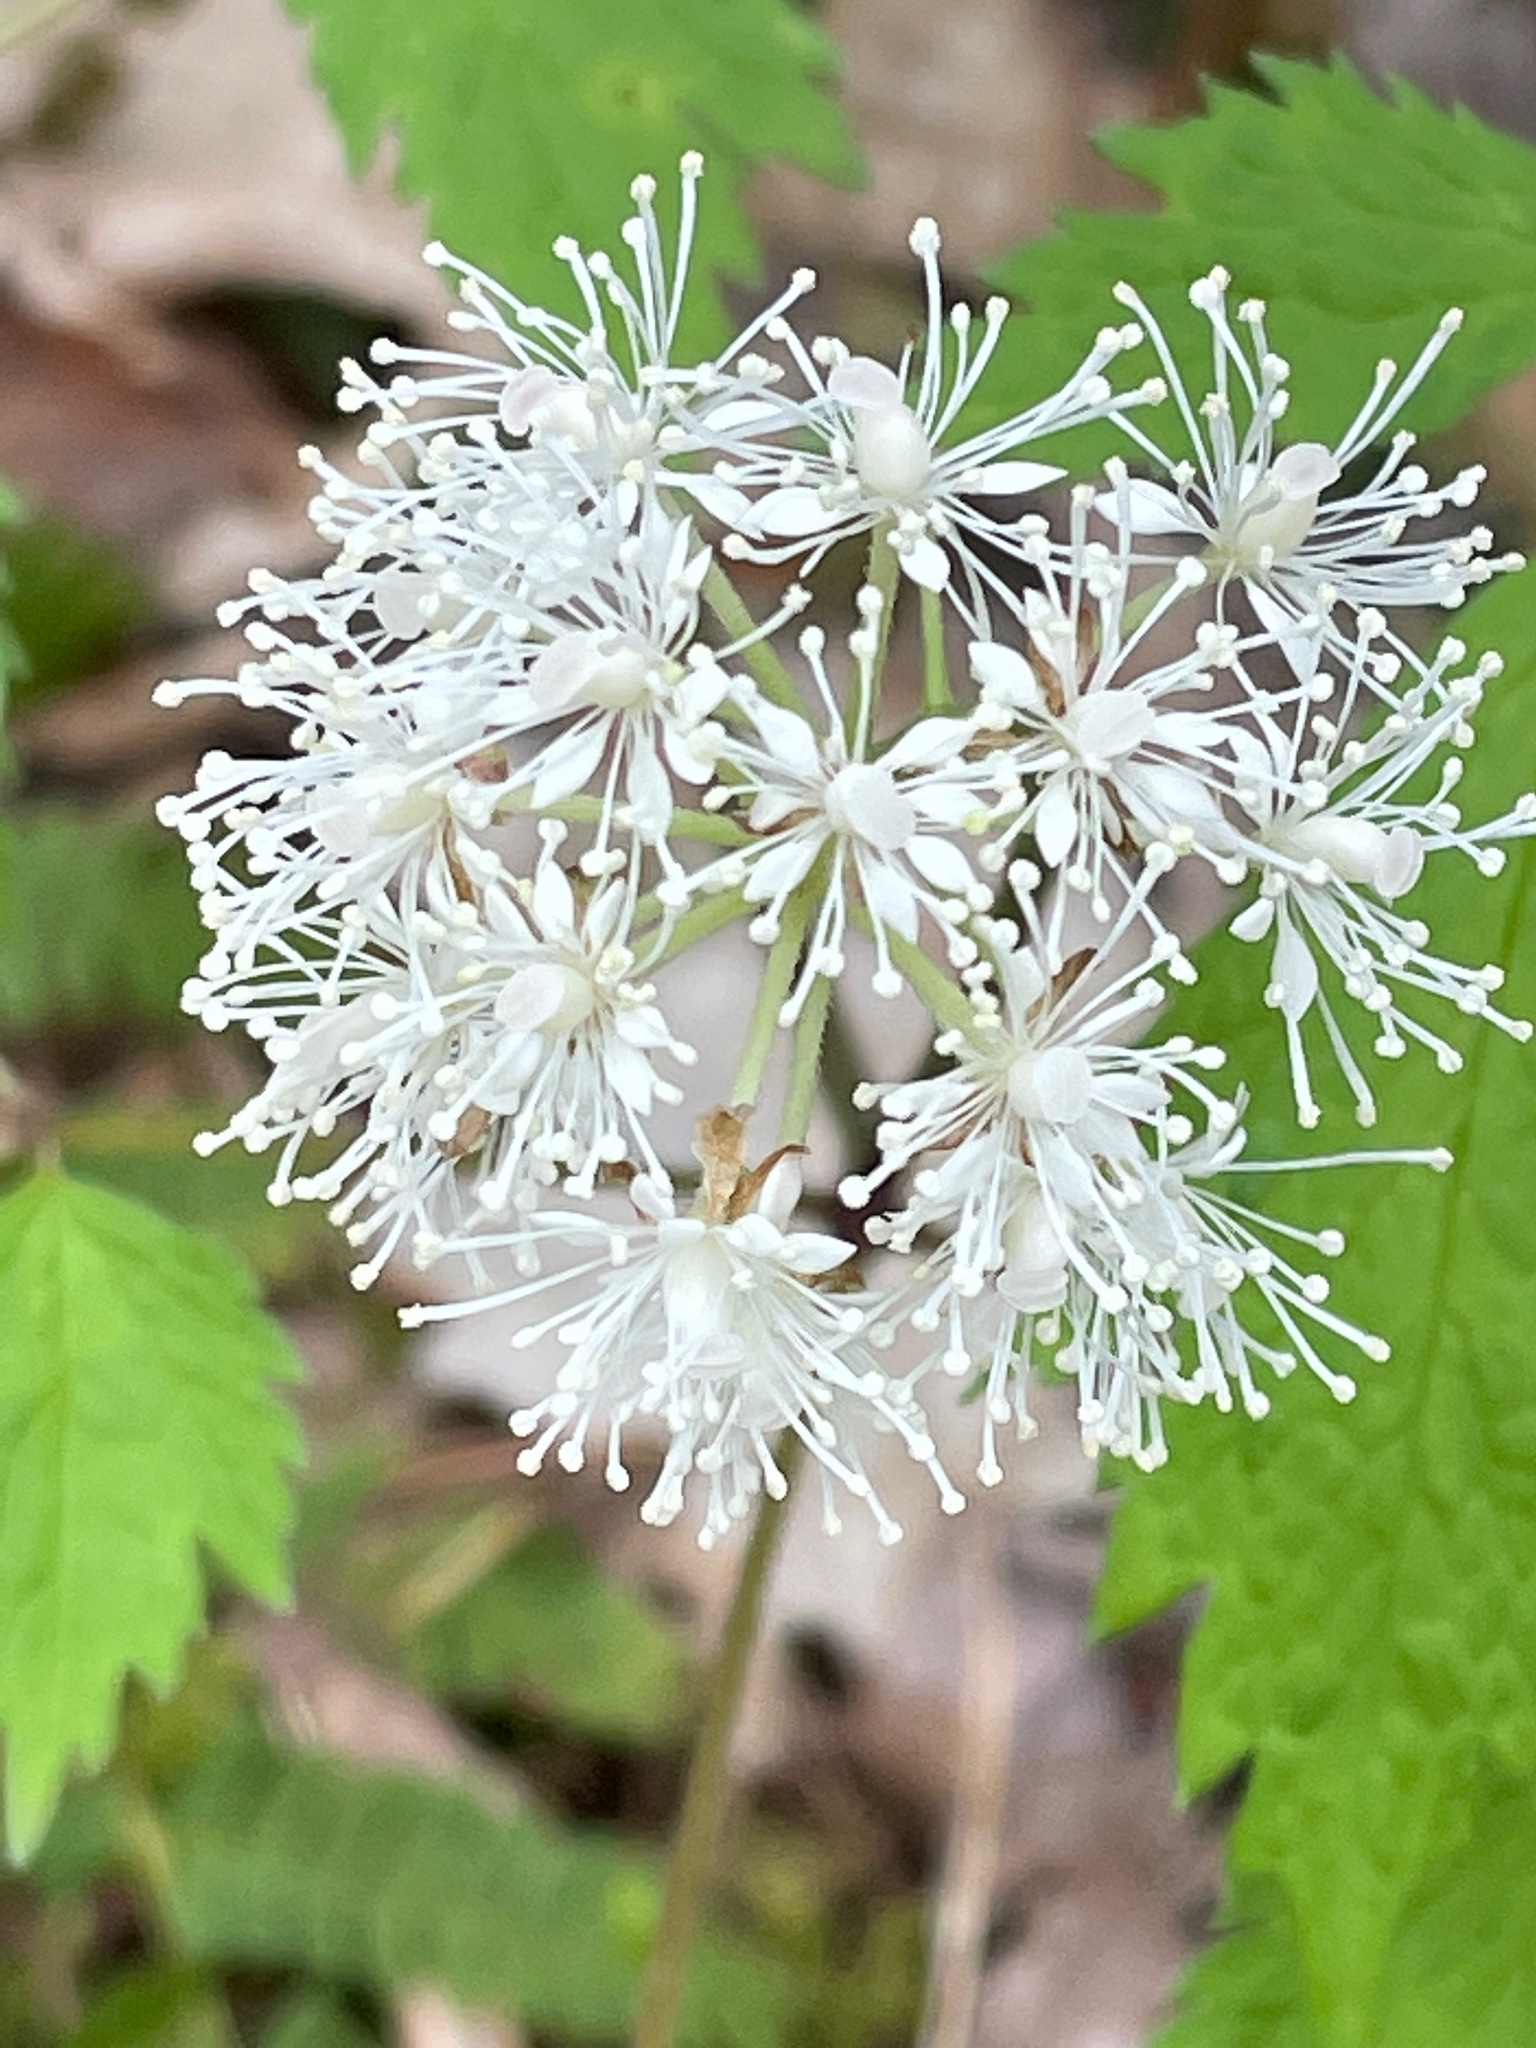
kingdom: Plantae
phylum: Tracheophyta
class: Magnoliopsida
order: Ranunculales
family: Ranunculaceae
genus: Actaea
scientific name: Actaea rubra
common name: Red baneberry
